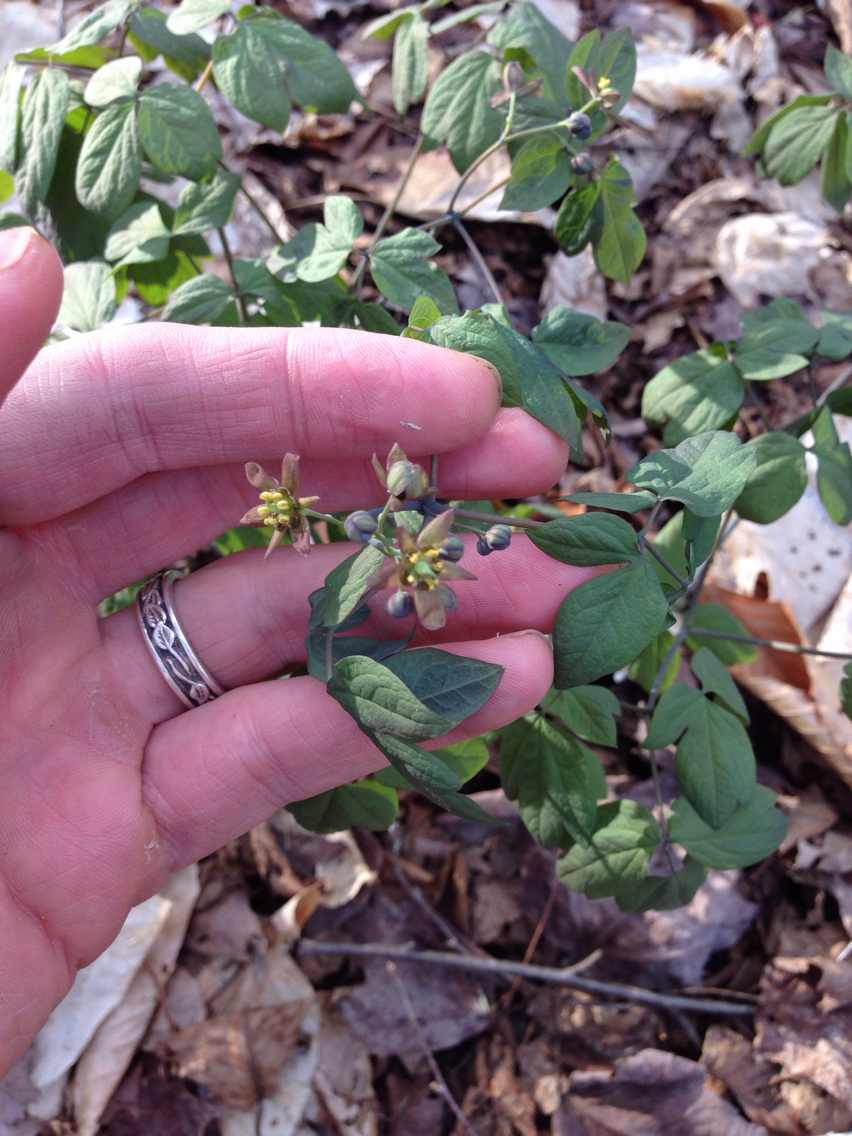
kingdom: Plantae
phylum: Tracheophyta
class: Magnoliopsida
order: Ranunculales
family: Berberidaceae
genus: Caulophyllum
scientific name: Caulophyllum giganteum
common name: Blue cohosh
